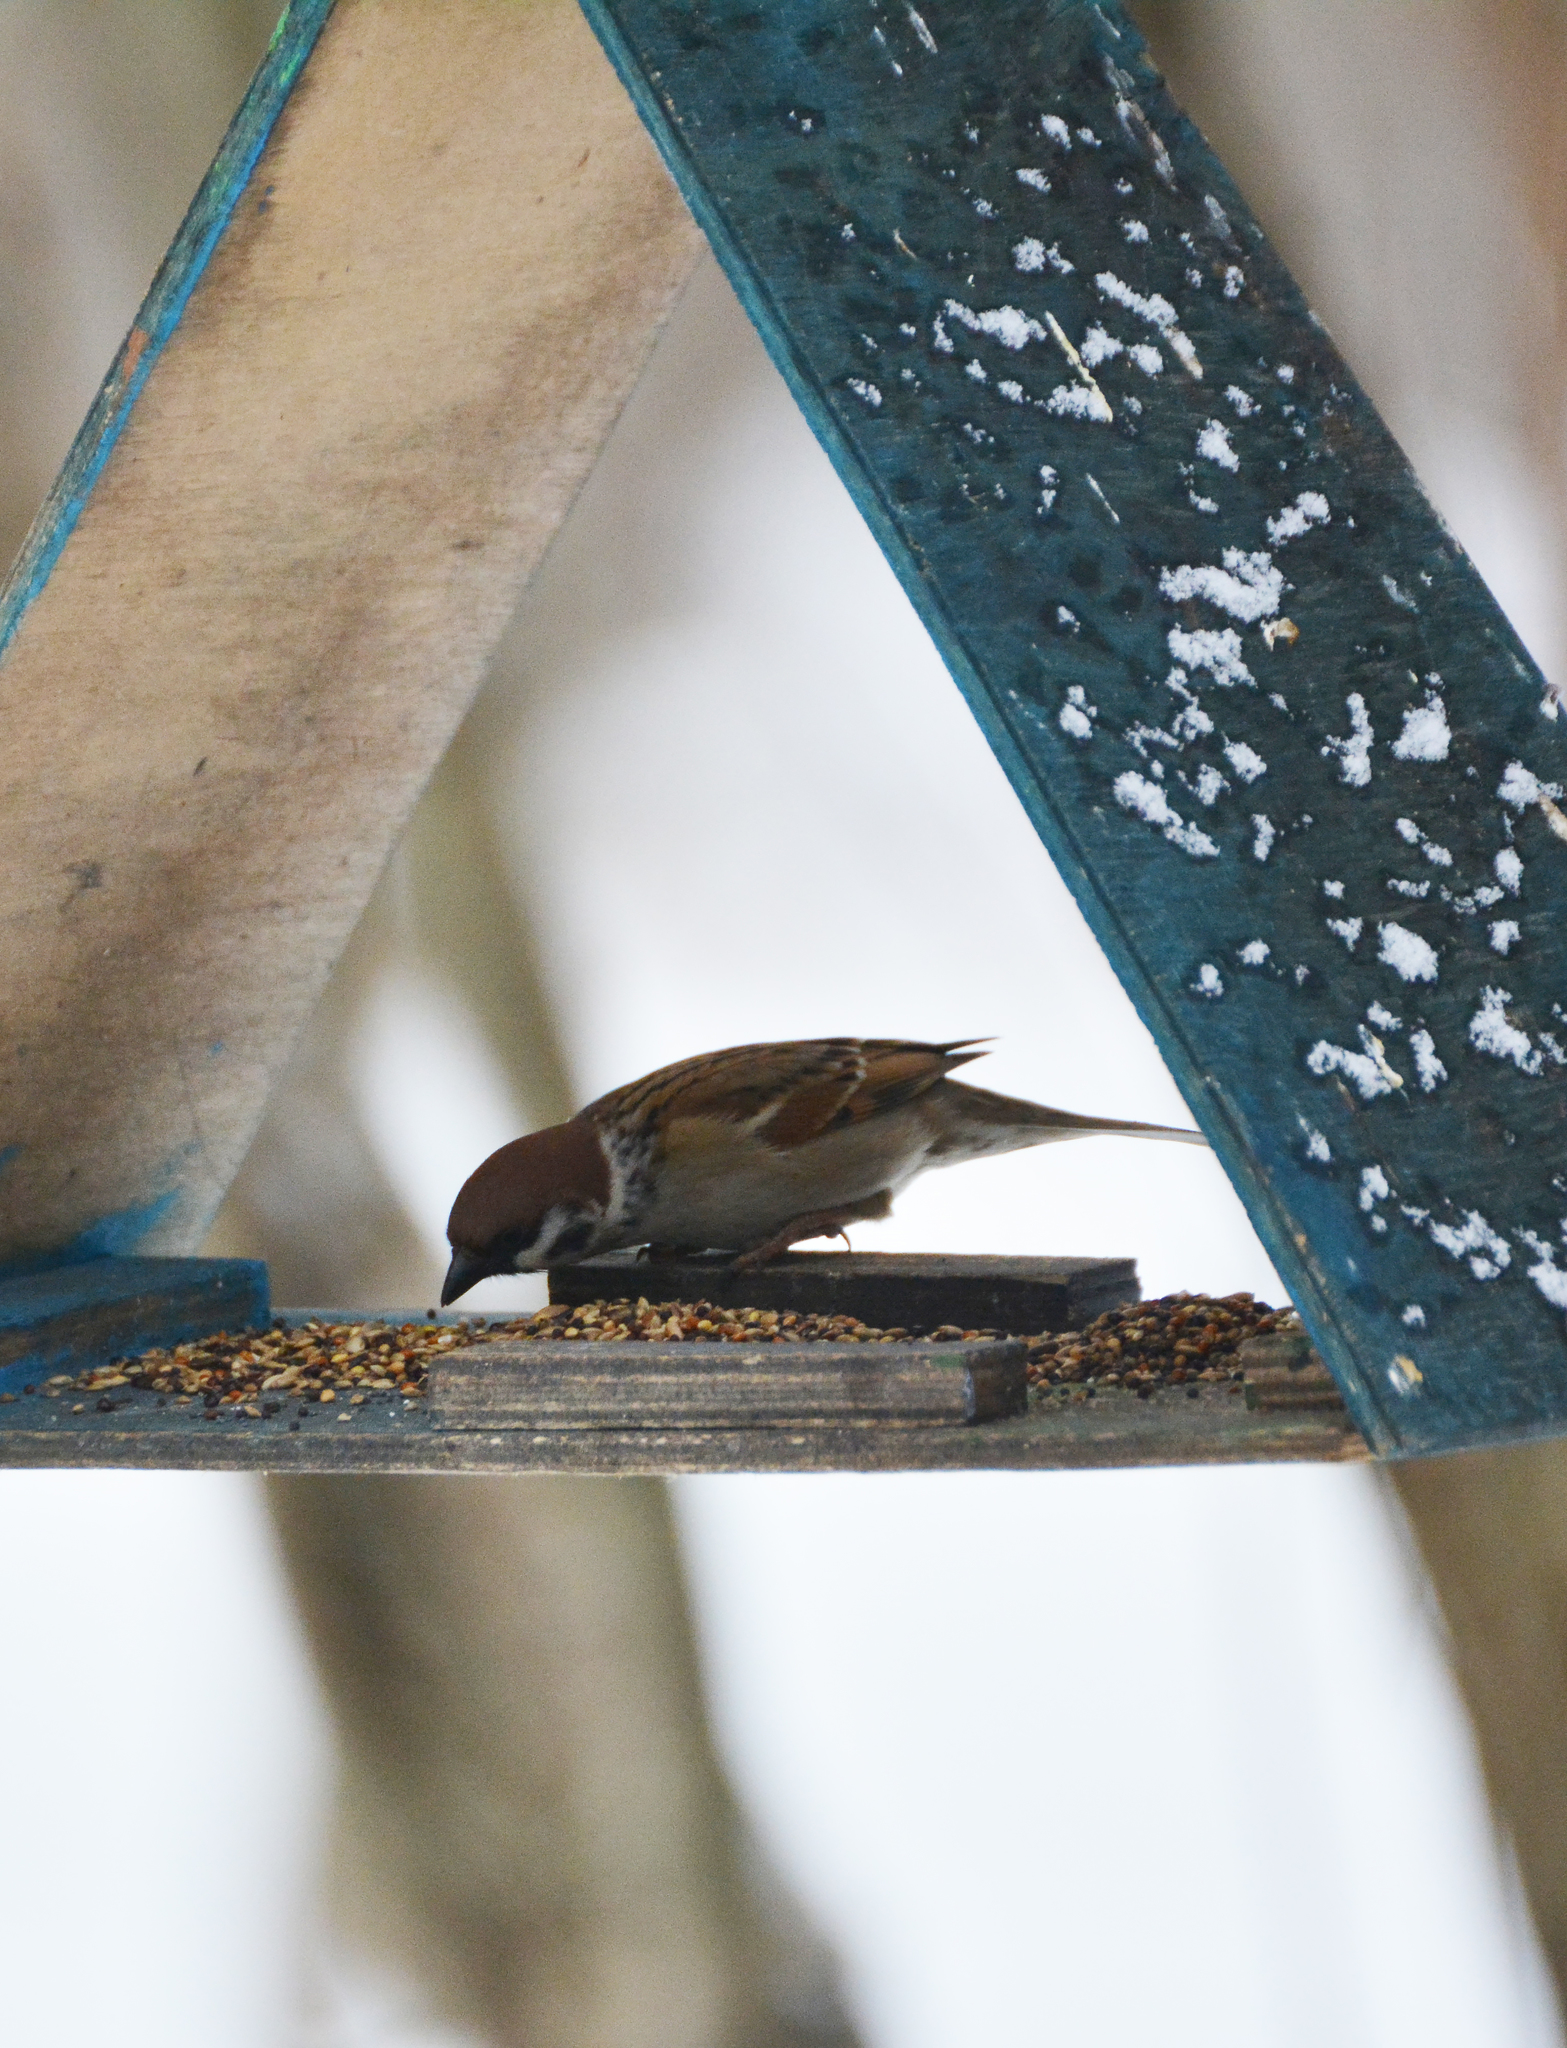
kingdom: Animalia
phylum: Chordata
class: Aves
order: Passeriformes
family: Passeridae
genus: Passer
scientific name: Passer montanus
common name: Eurasian tree sparrow
